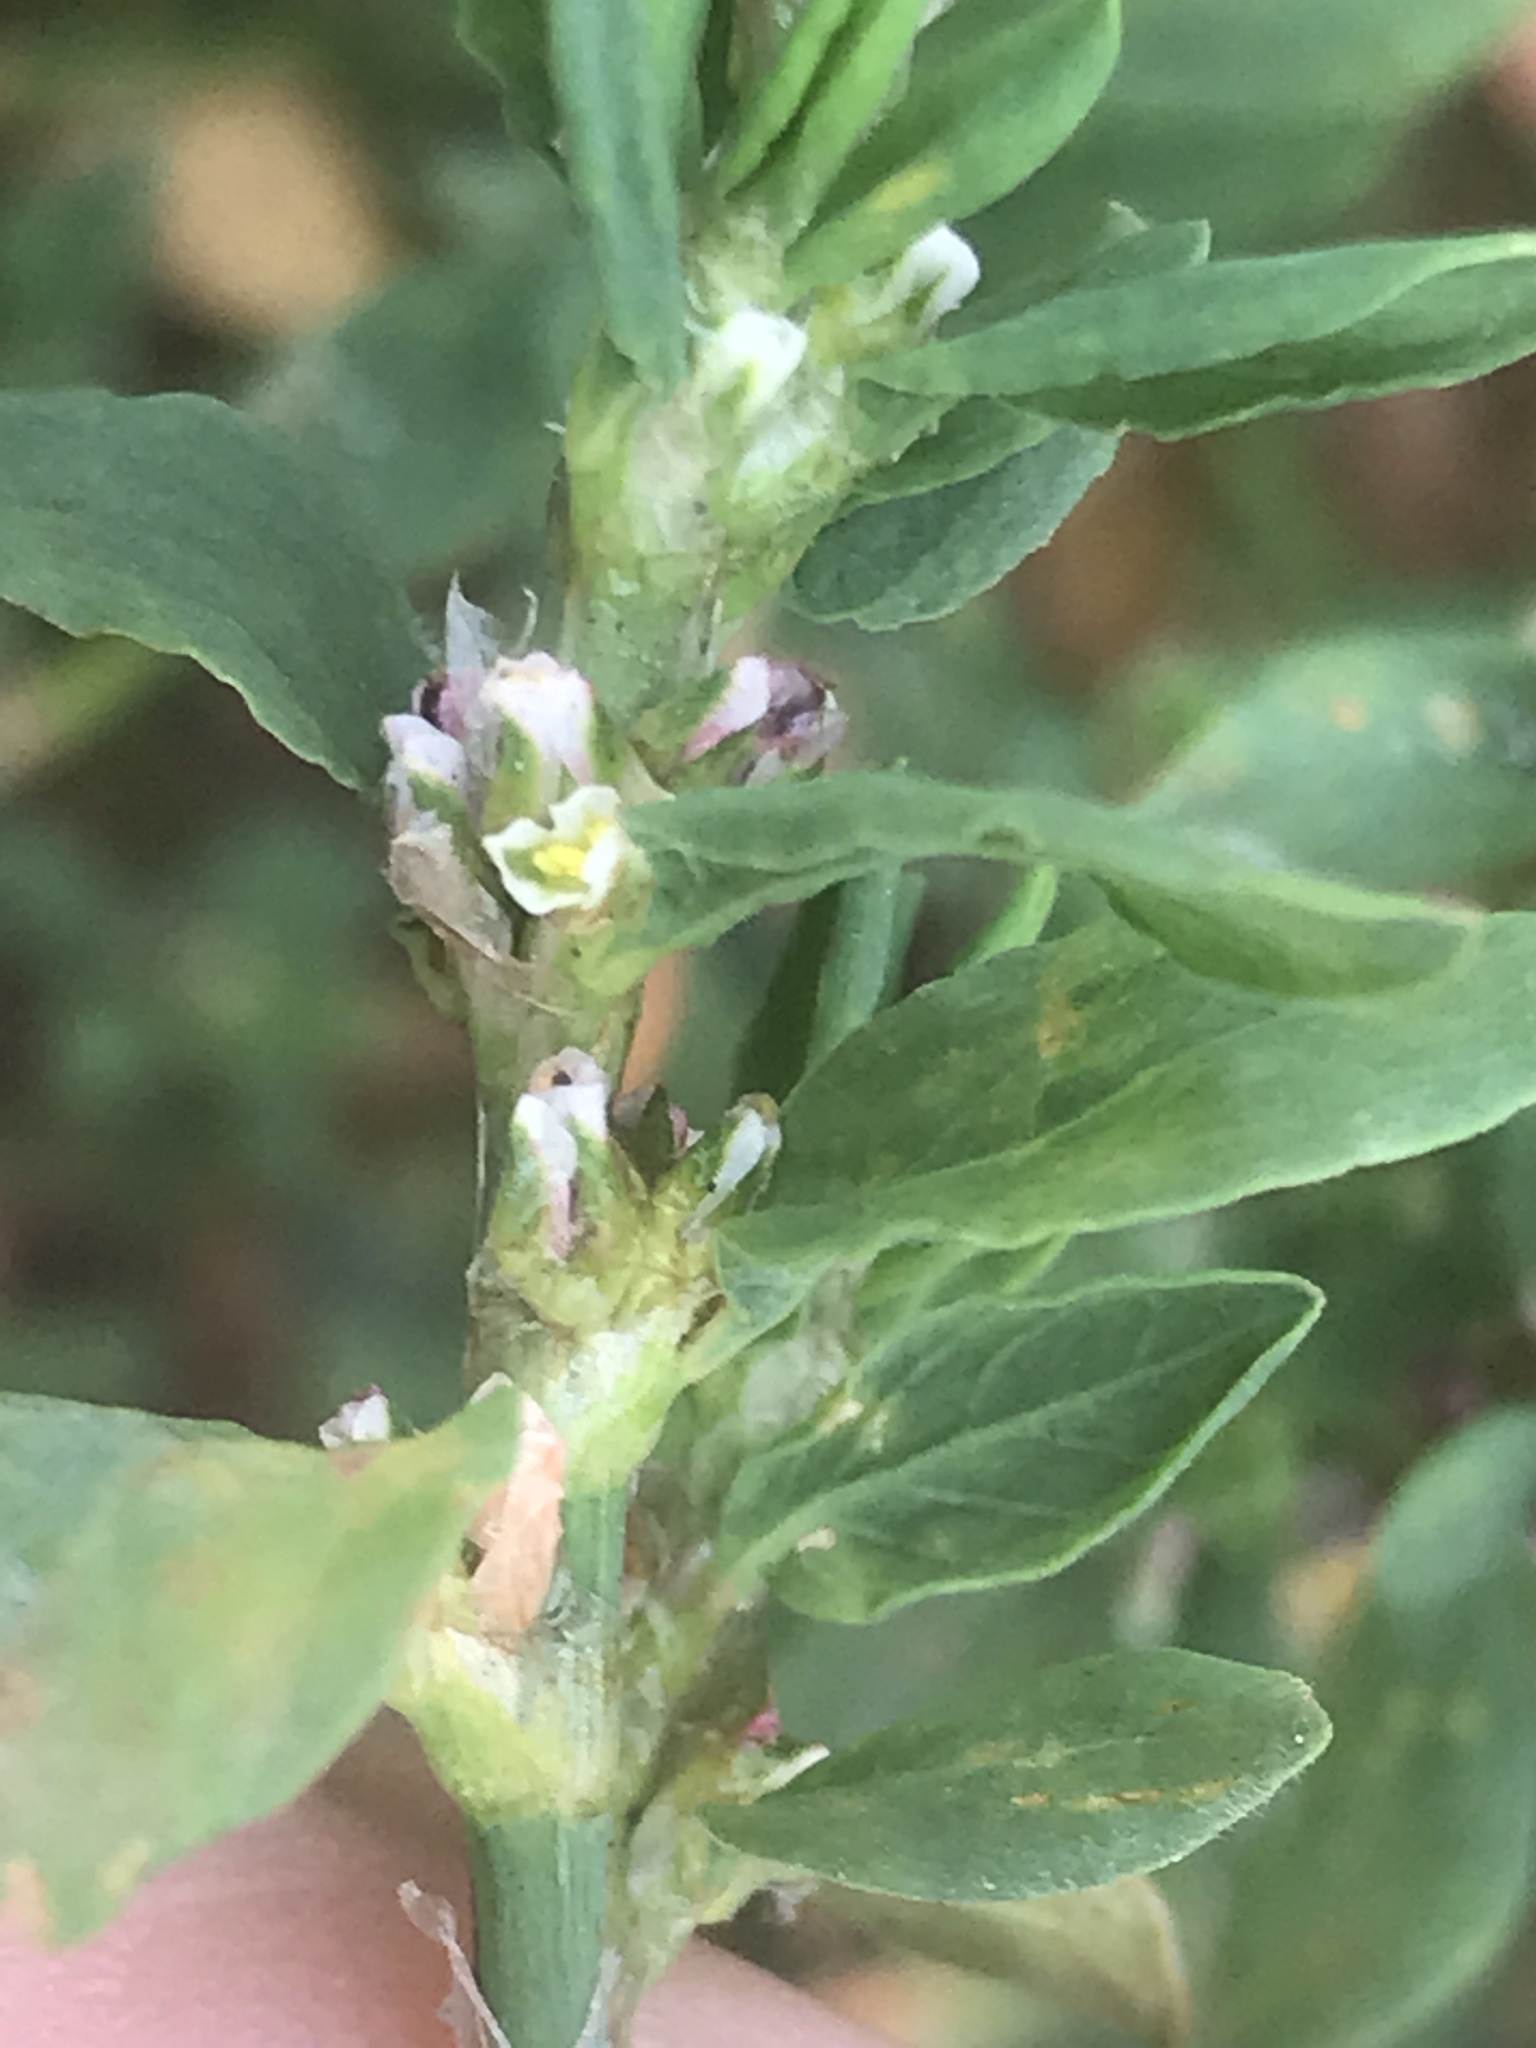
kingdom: Plantae
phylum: Tracheophyta
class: Magnoliopsida
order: Caryophyllales
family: Polygonaceae
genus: Polygonum
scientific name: Polygonum aviculare
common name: Prostrate knotweed
